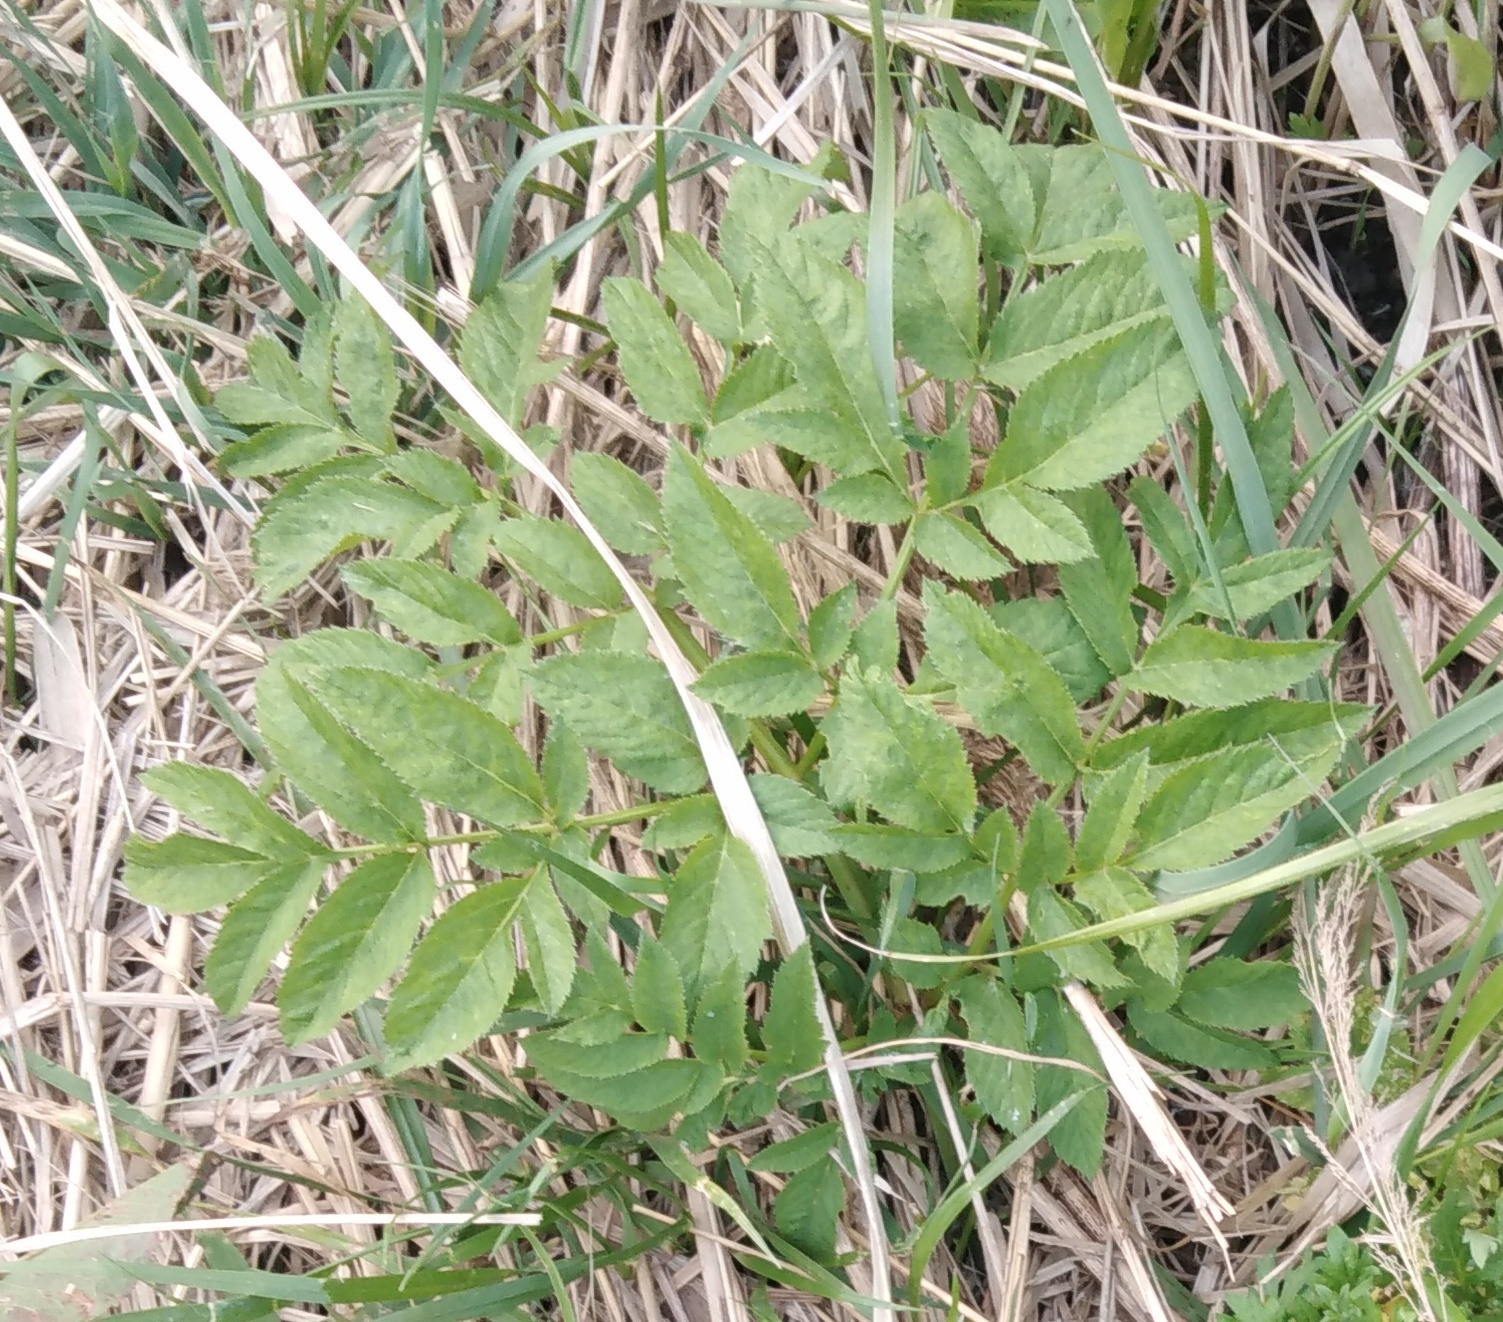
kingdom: Plantae
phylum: Tracheophyta
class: Magnoliopsida
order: Apiales
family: Apiaceae
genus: Angelica
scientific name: Angelica sylvestris
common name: Wild angelica
